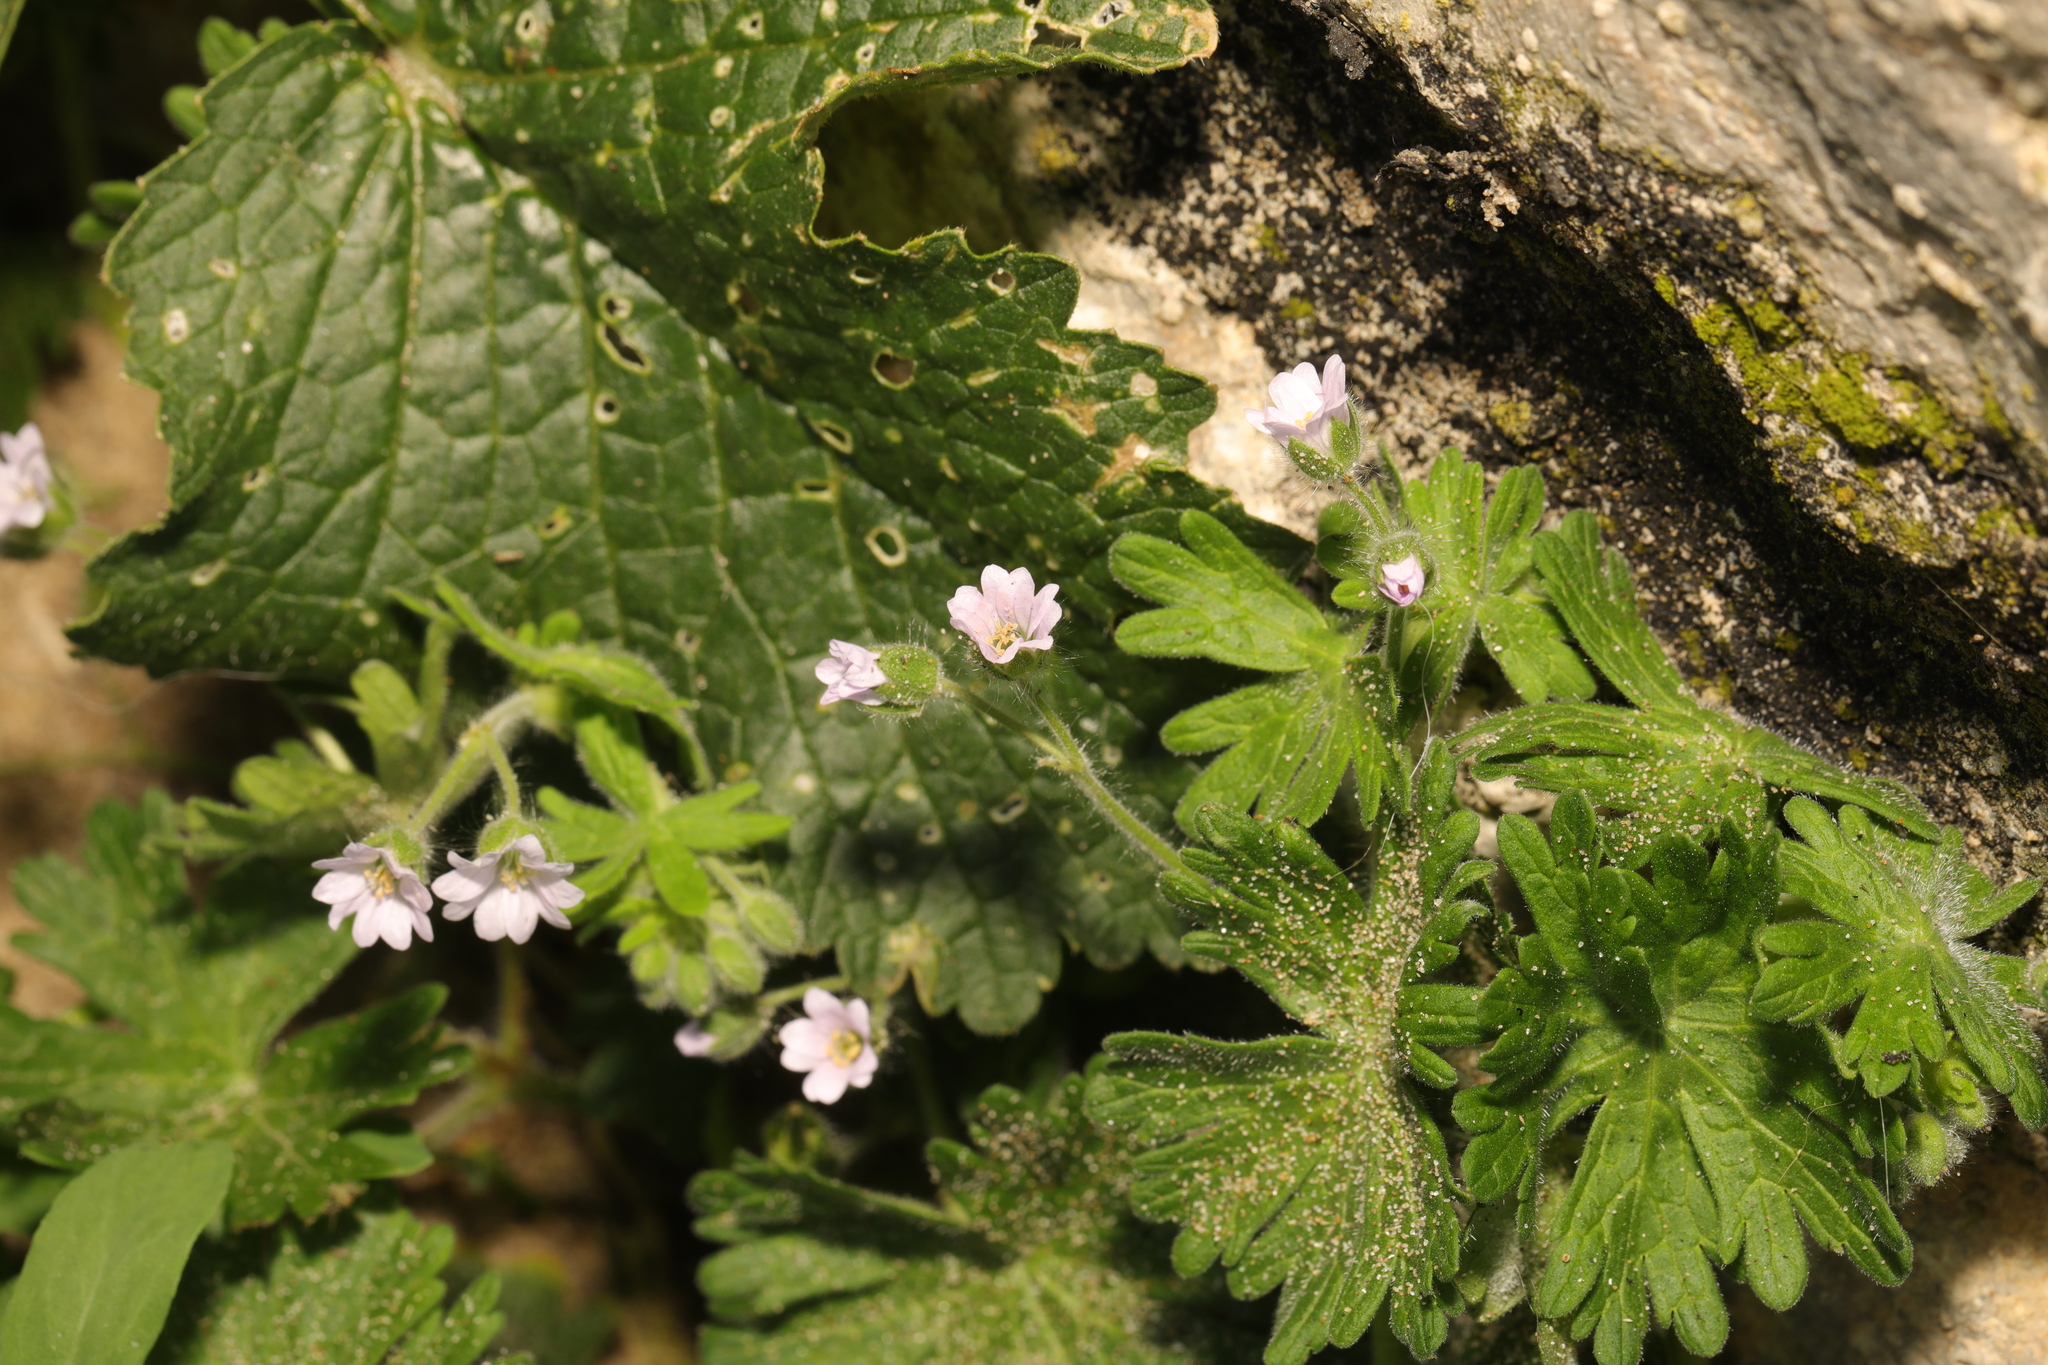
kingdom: Plantae
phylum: Tracheophyta
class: Magnoliopsida
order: Geraniales
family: Geraniaceae
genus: Geranium
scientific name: Geranium molle
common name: Dove's-foot crane's-bill
